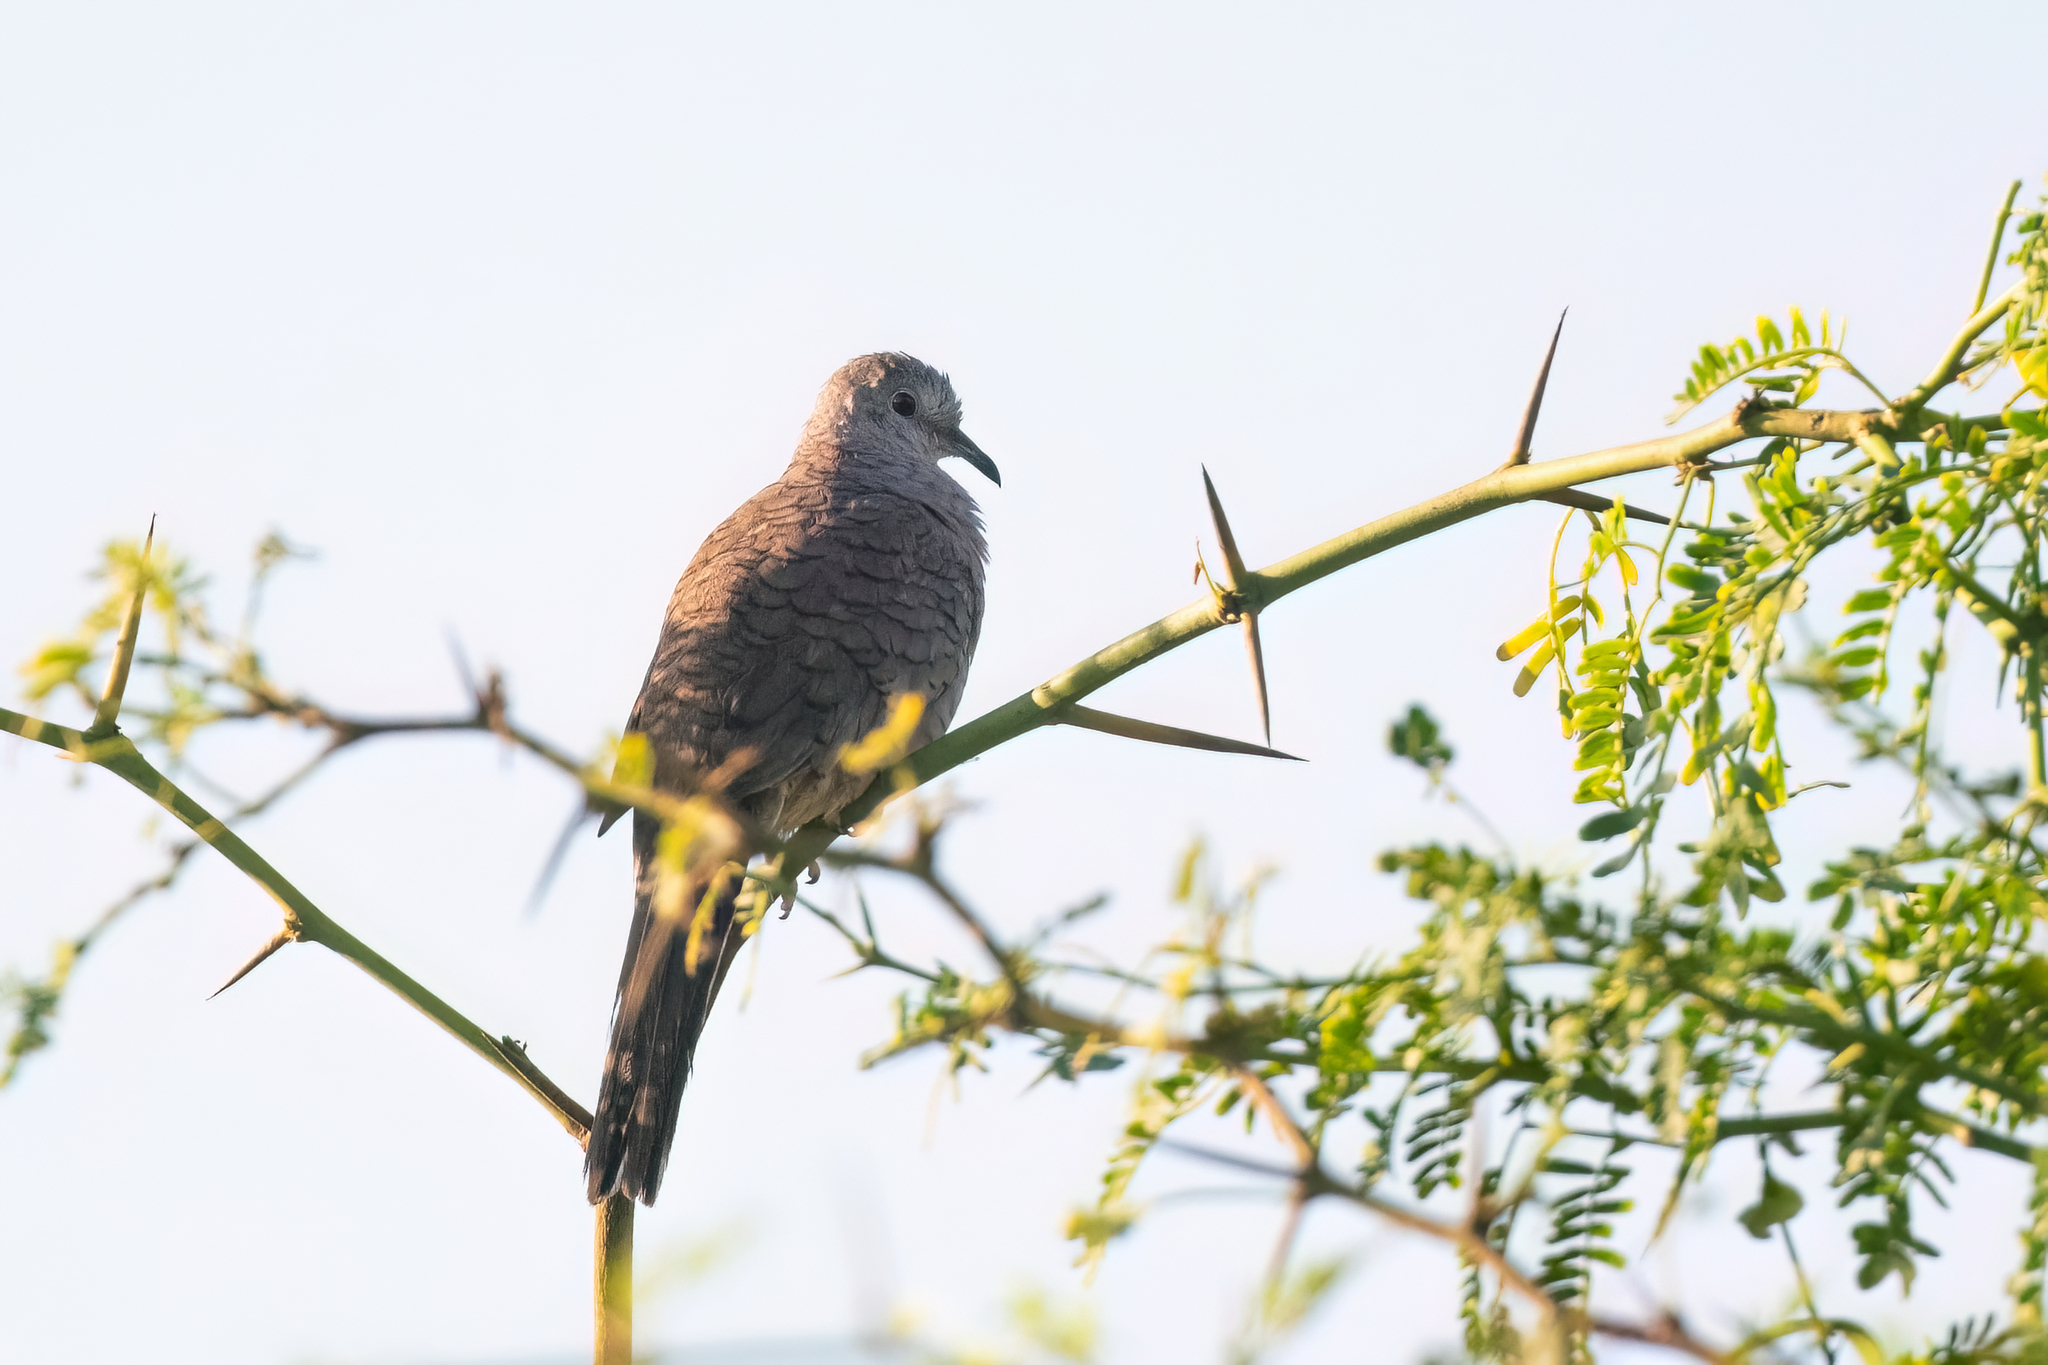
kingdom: Animalia
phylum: Chordata
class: Aves
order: Columbiformes
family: Columbidae
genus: Columbina
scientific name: Columbina inca
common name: Inca dove
